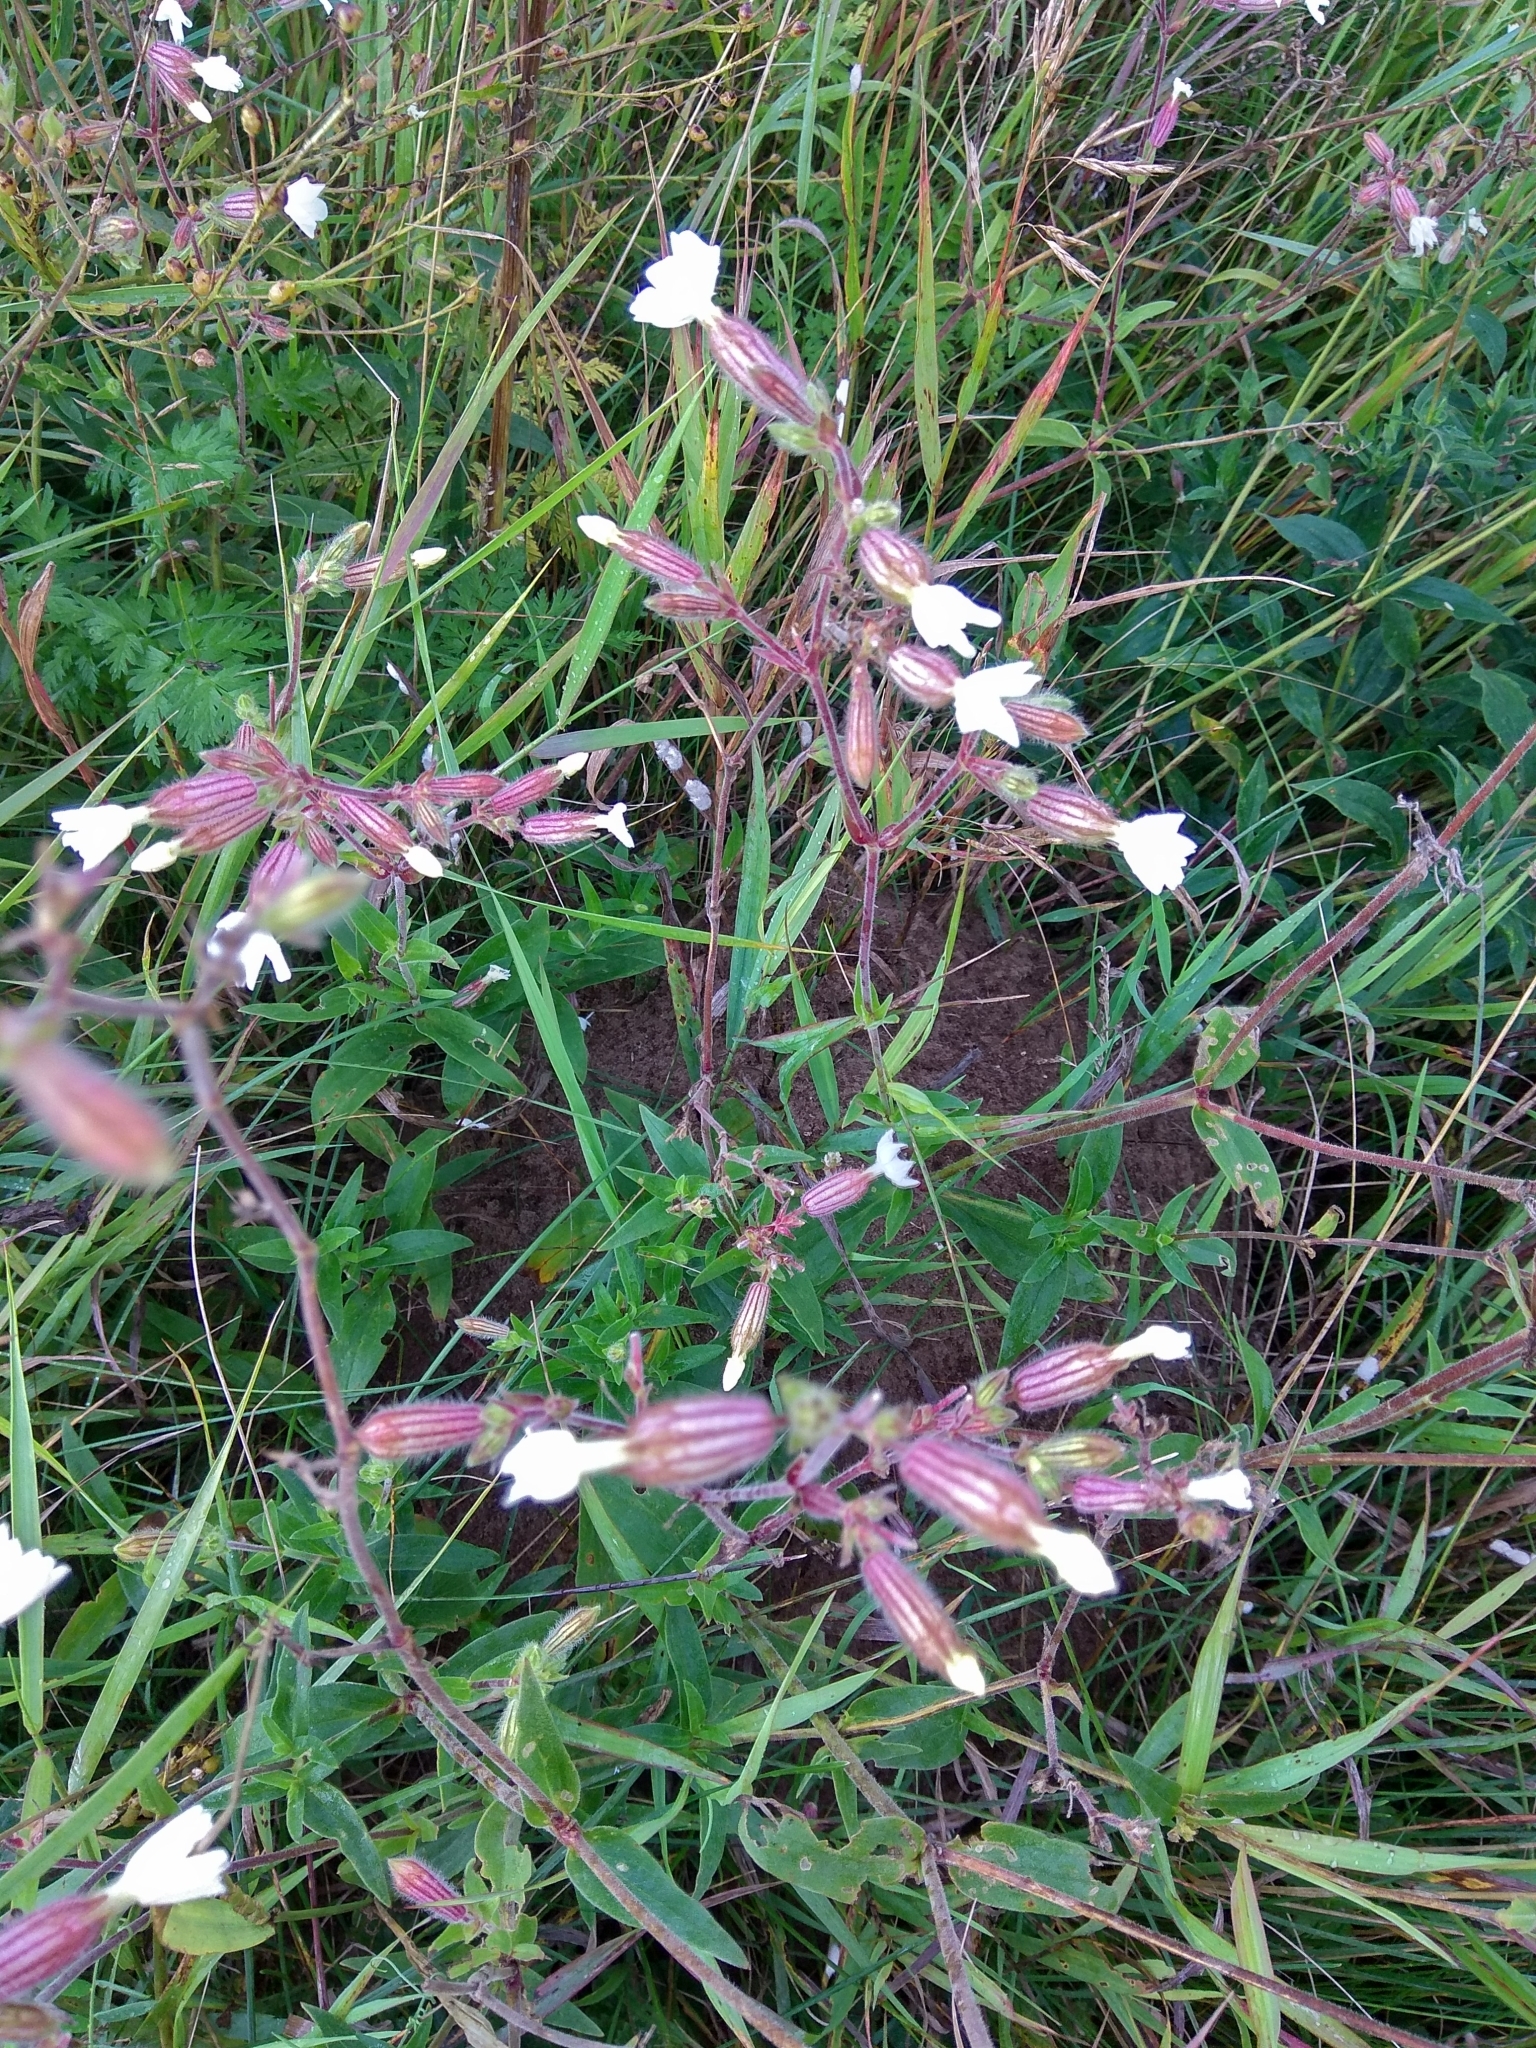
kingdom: Plantae
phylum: Tracheophyta
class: Magnoliopsida
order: Caryophyllales
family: Caryophyllaceae
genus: Silene
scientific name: Silene latifolia
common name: White campion
